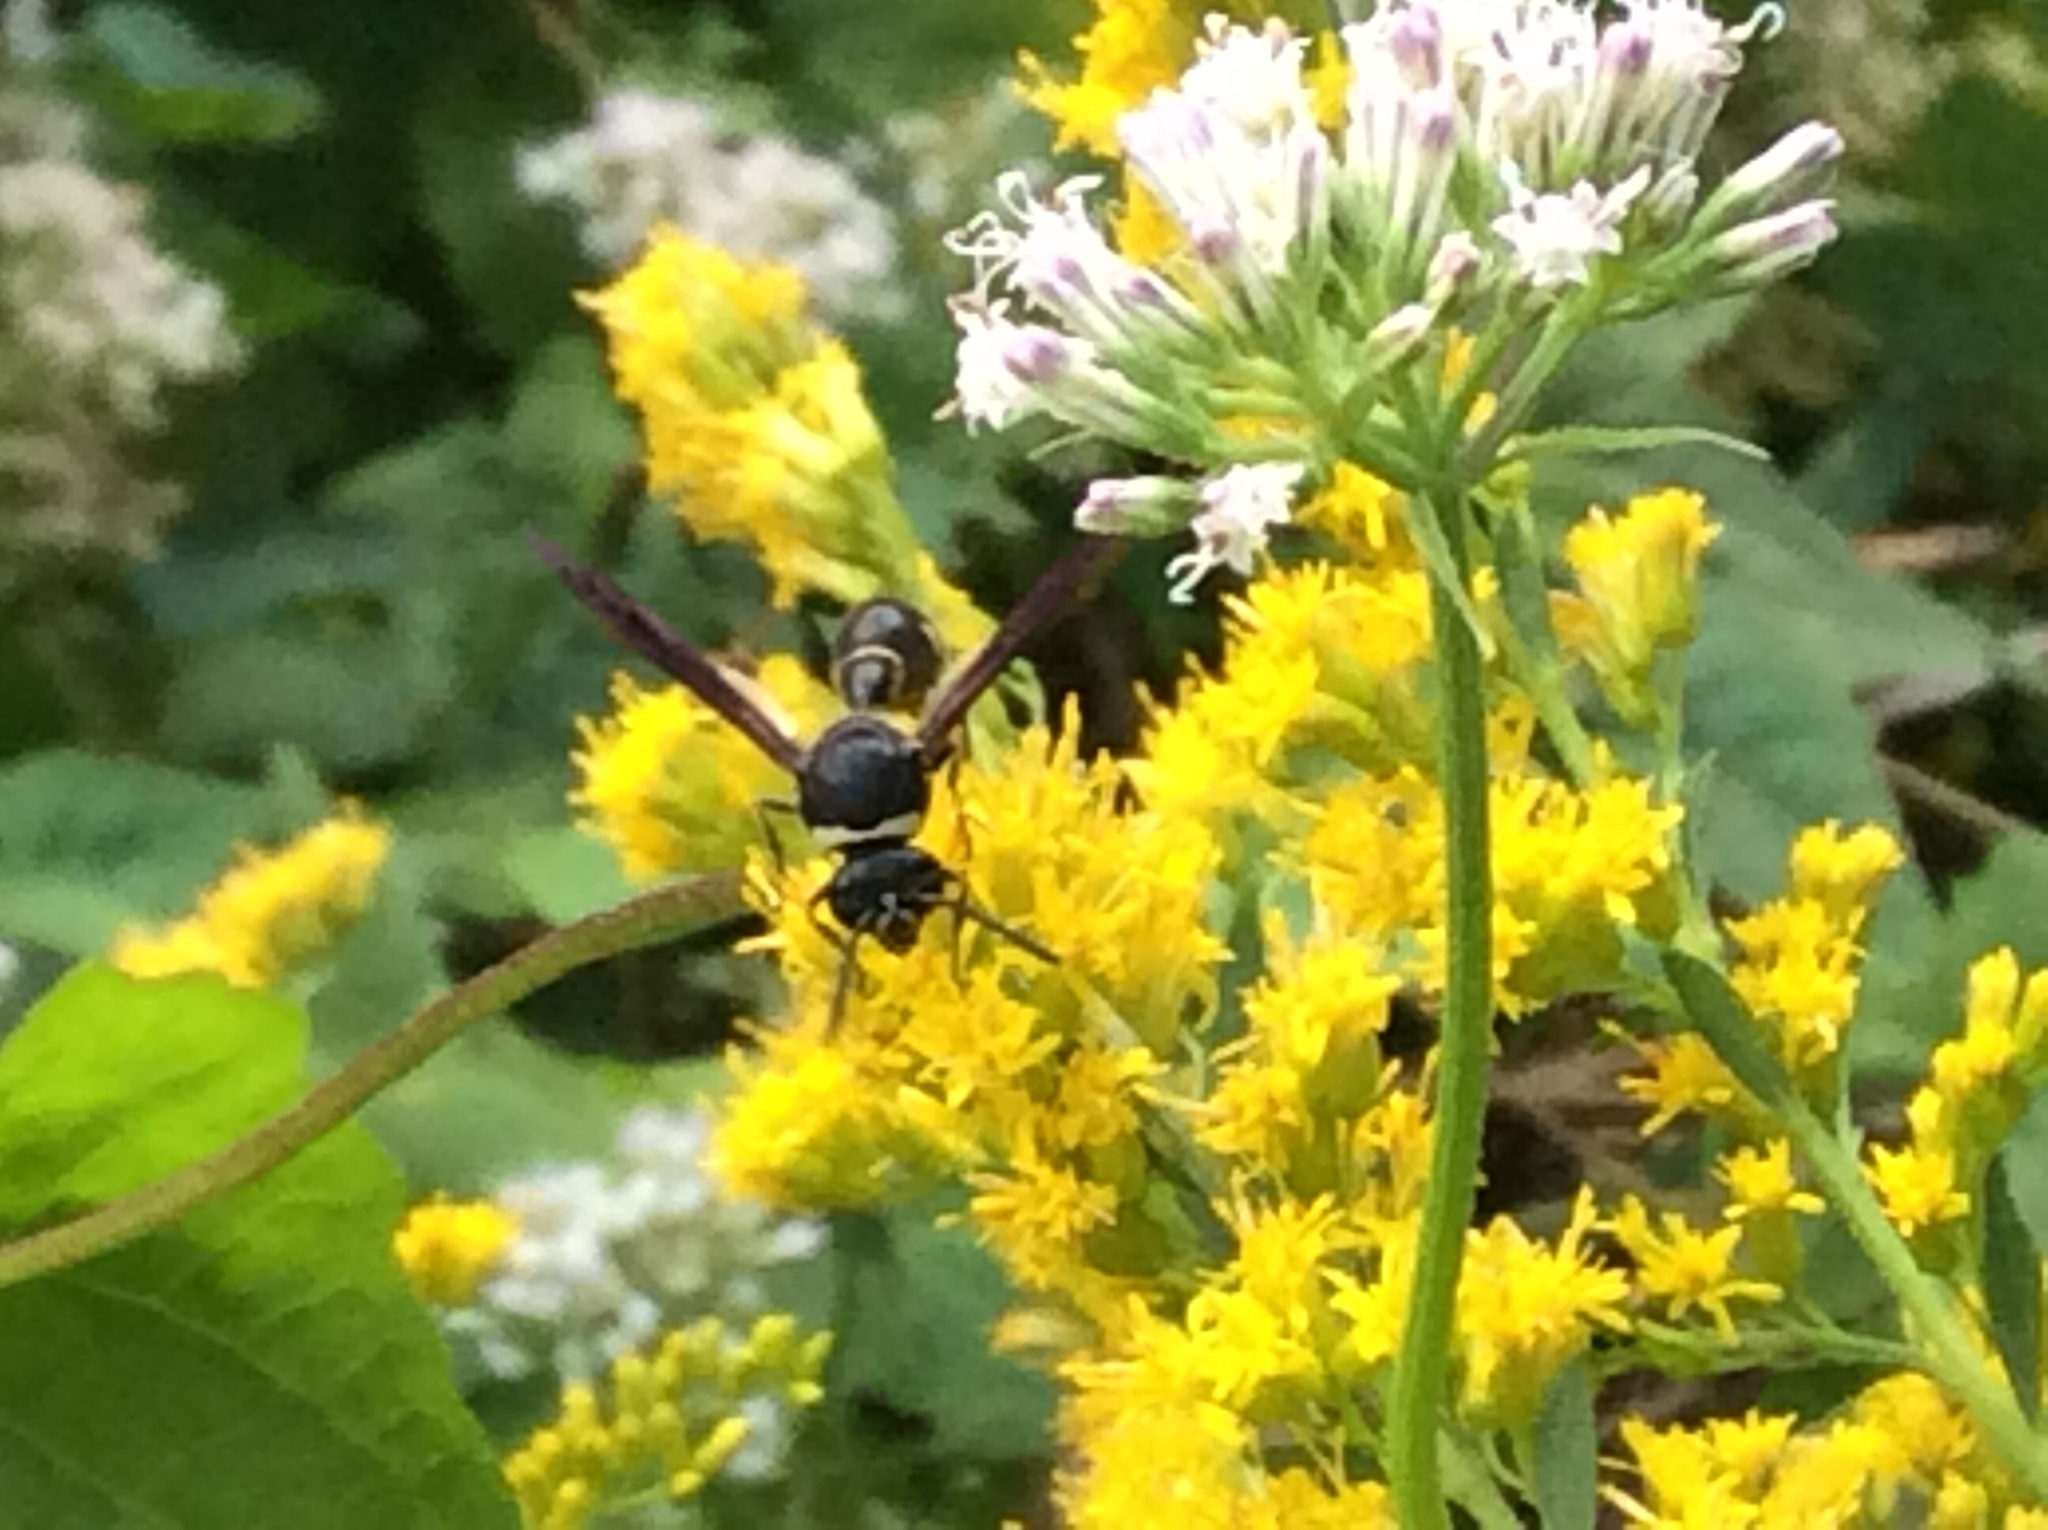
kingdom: Animalia
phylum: Arthropoda
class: Insecta
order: Hymenoptera
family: Vespidae
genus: Eumenes
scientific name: Eumenes fraternus
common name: Fraternal potter wasp
